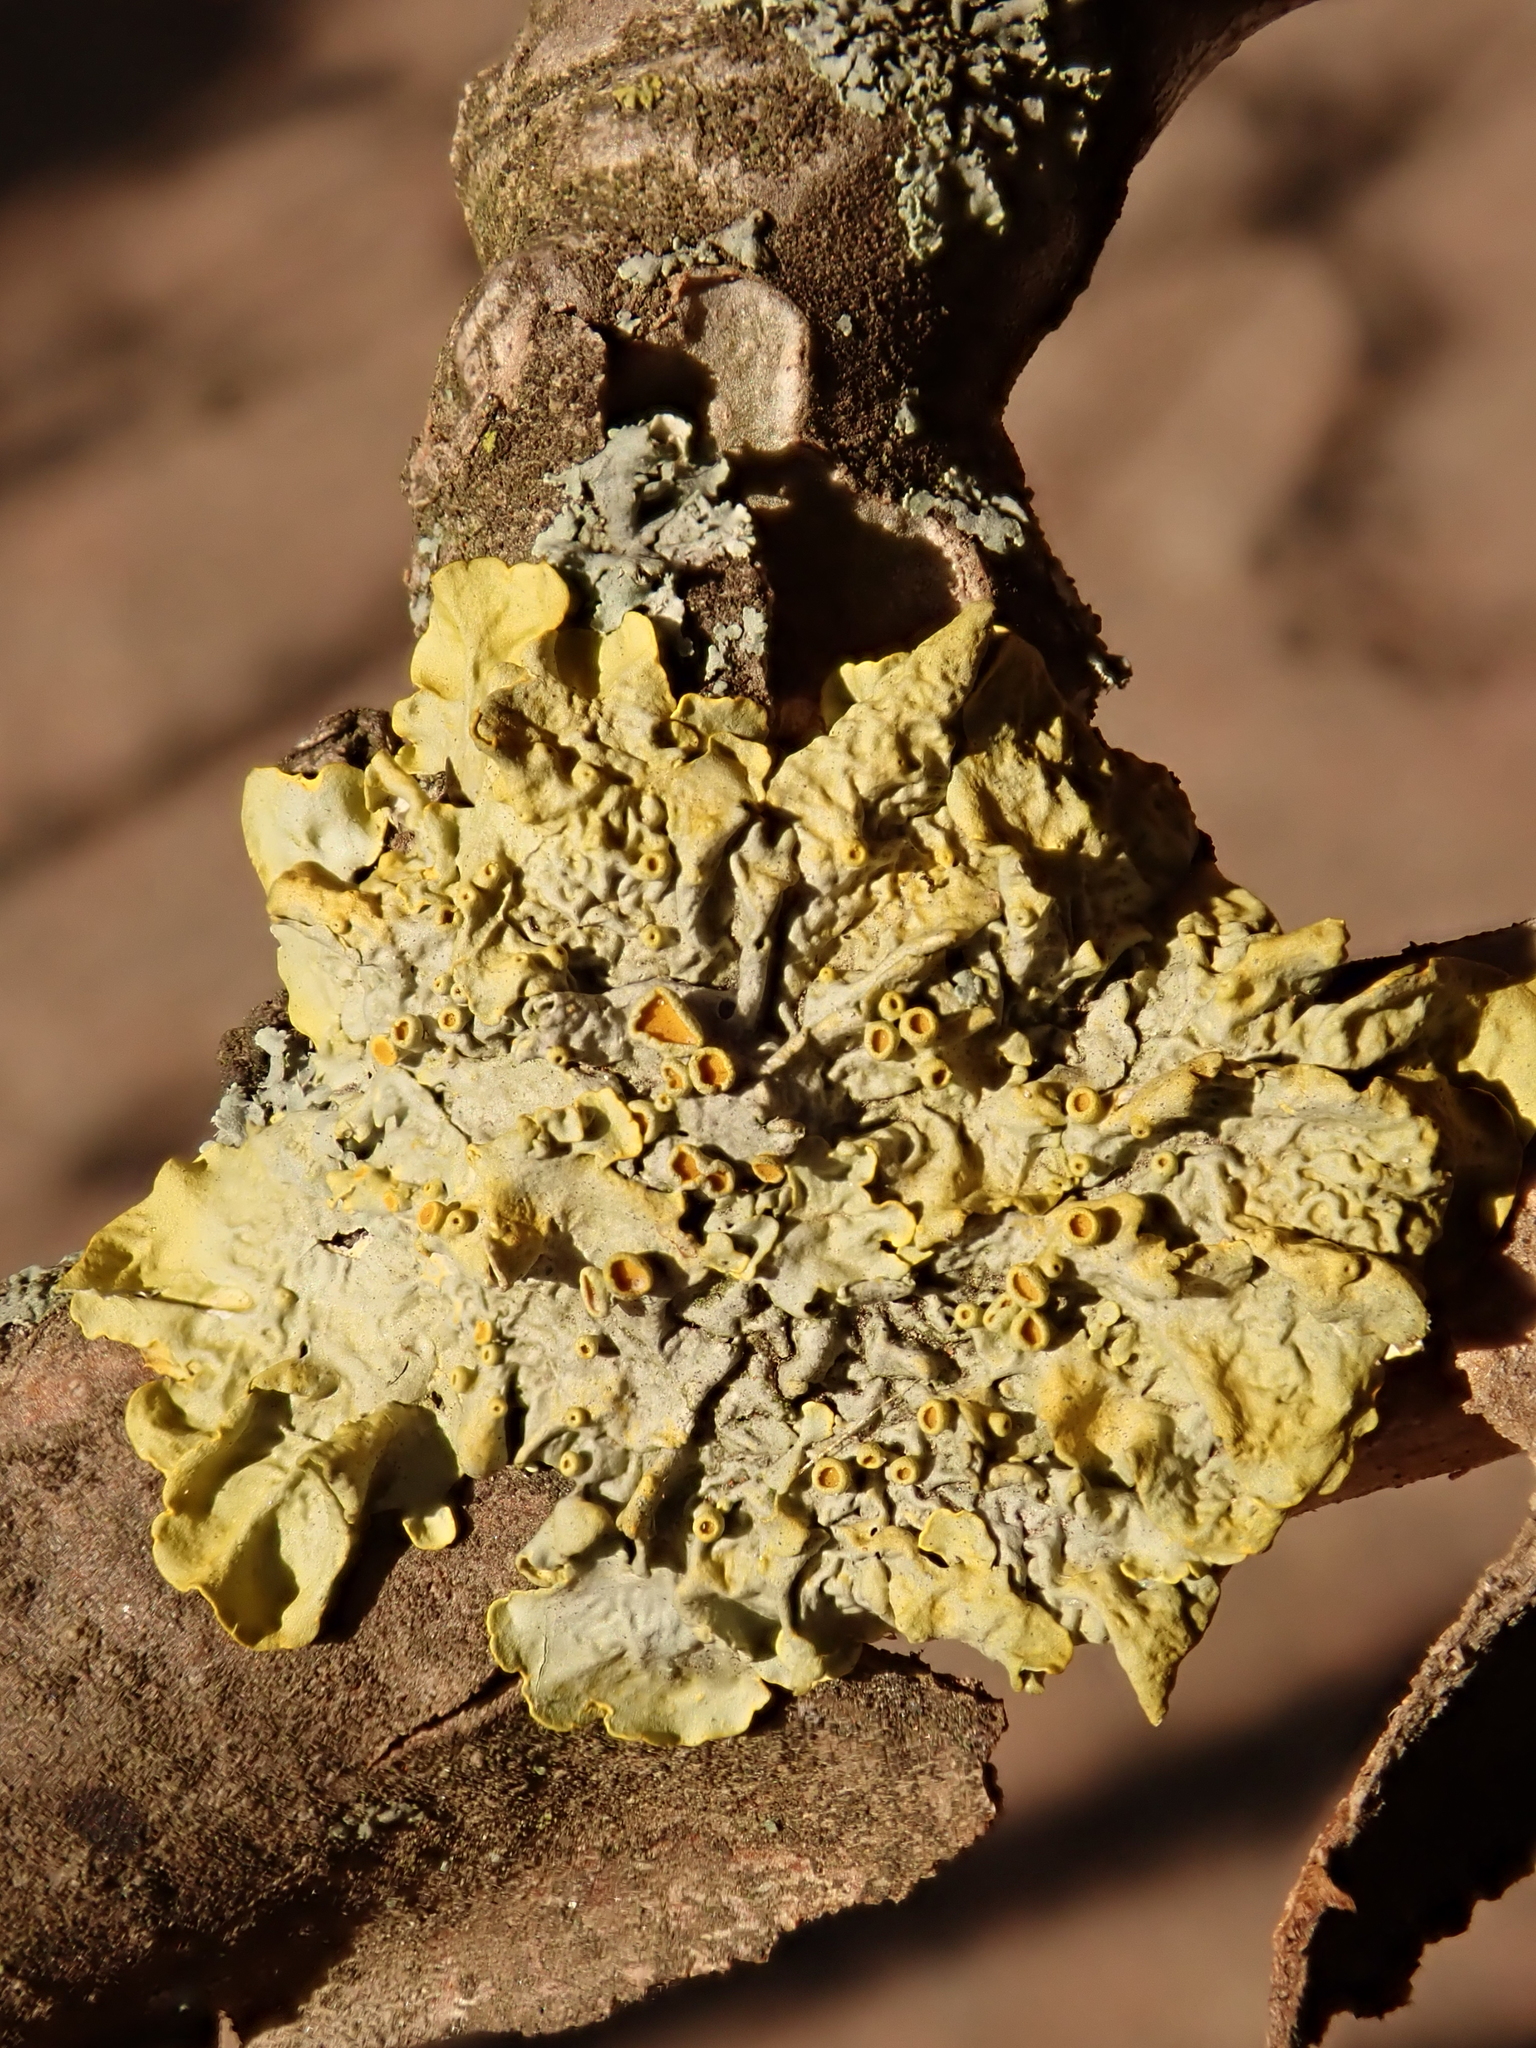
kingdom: Fungi
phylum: Ascomycota
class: Lecanoromycetes
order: Teloschistales
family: Teloschistaceae
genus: Xanthoria
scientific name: Xanthoria parietina
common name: Common orange lichen
